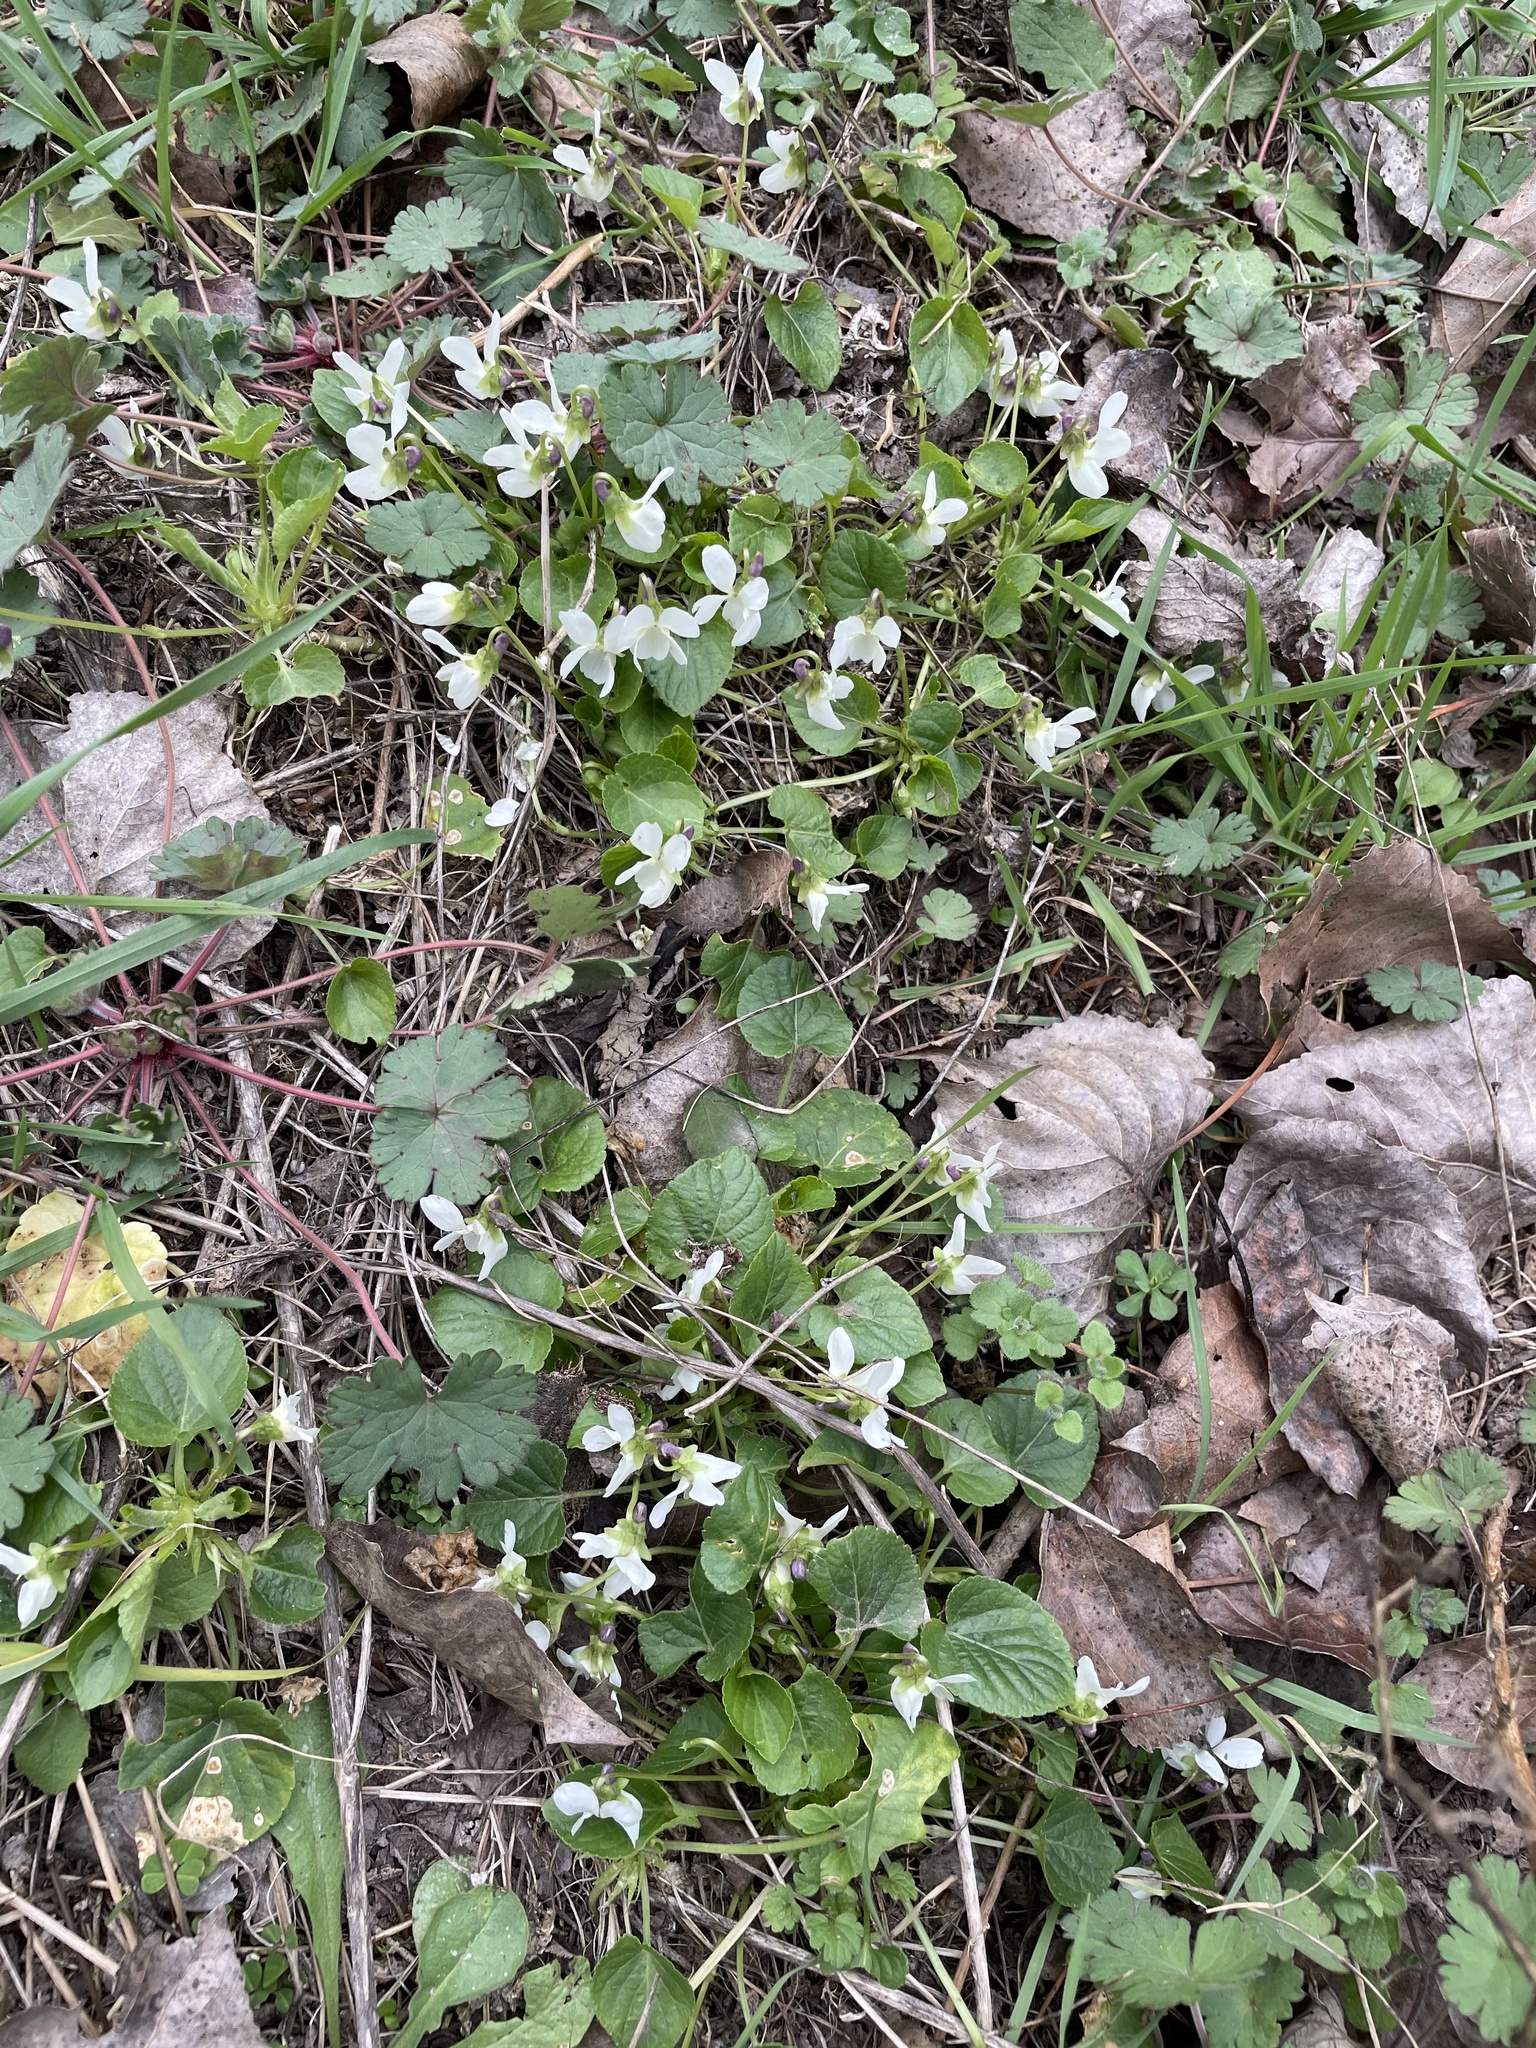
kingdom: Plantae
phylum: Tracheophyta
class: Magnoliopsida
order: Malpighiales
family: Violaceae
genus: Viola
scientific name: Viola alba
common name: White violet
